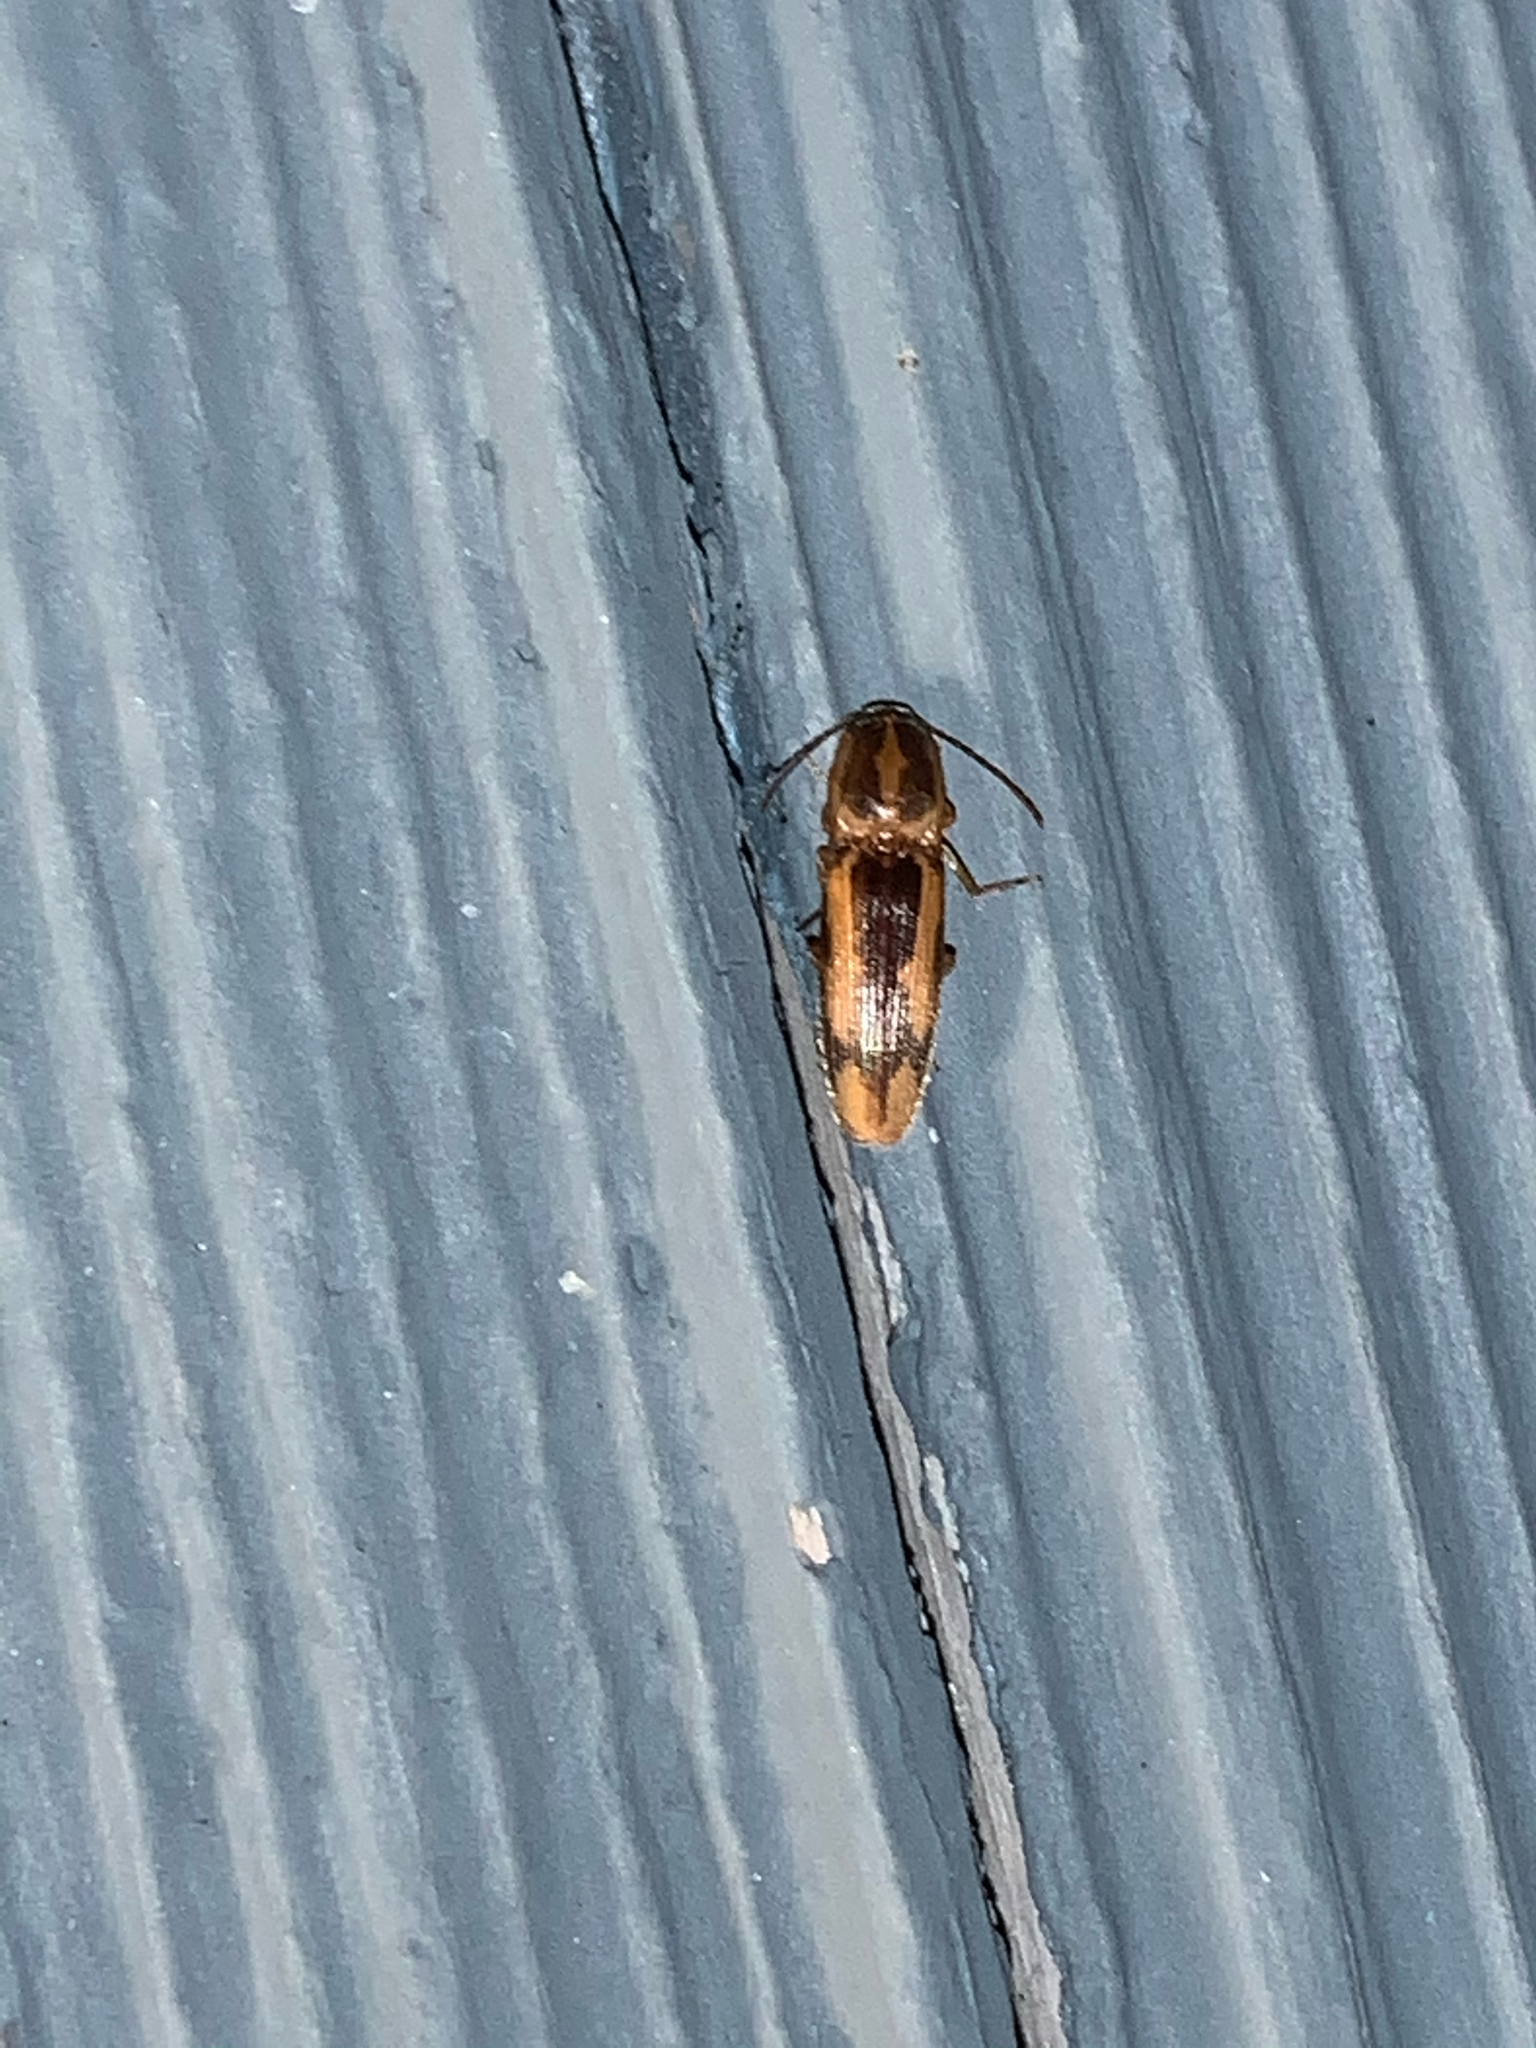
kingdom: Animalia
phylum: Arthropoda
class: Insecta
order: Coleoptera
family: Elateridae
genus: Monocrepidius
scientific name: Monocrepidius
